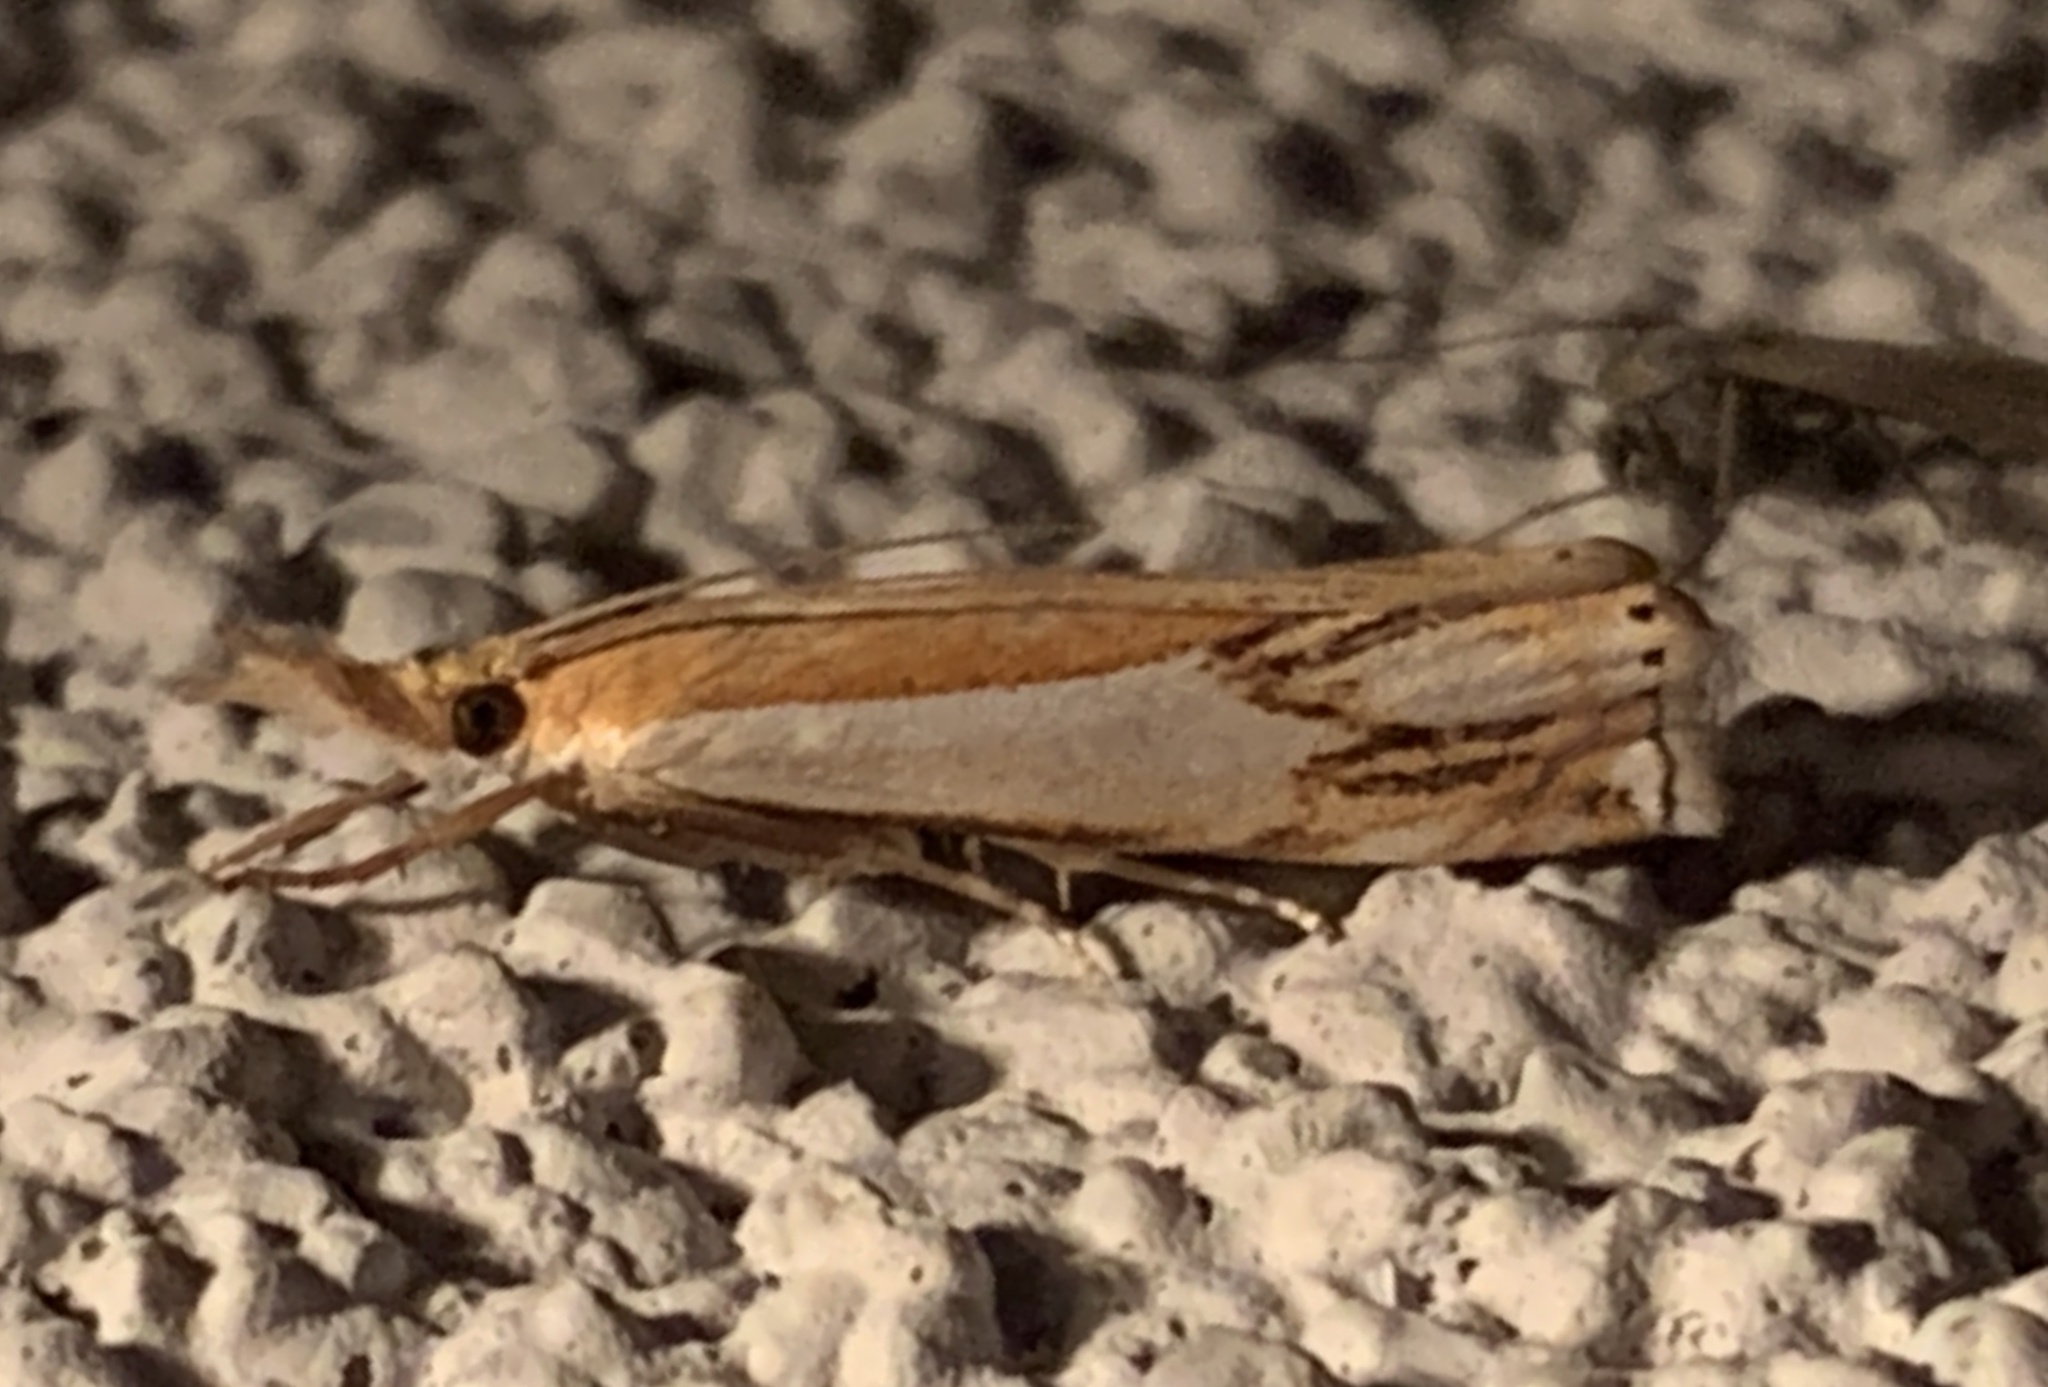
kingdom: Animalia
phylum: Arthropoda
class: Insecta
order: Lepidoptera
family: Crambidae
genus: Crambus
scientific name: Crambus agitatellus
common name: Double-banded grass-veneer
